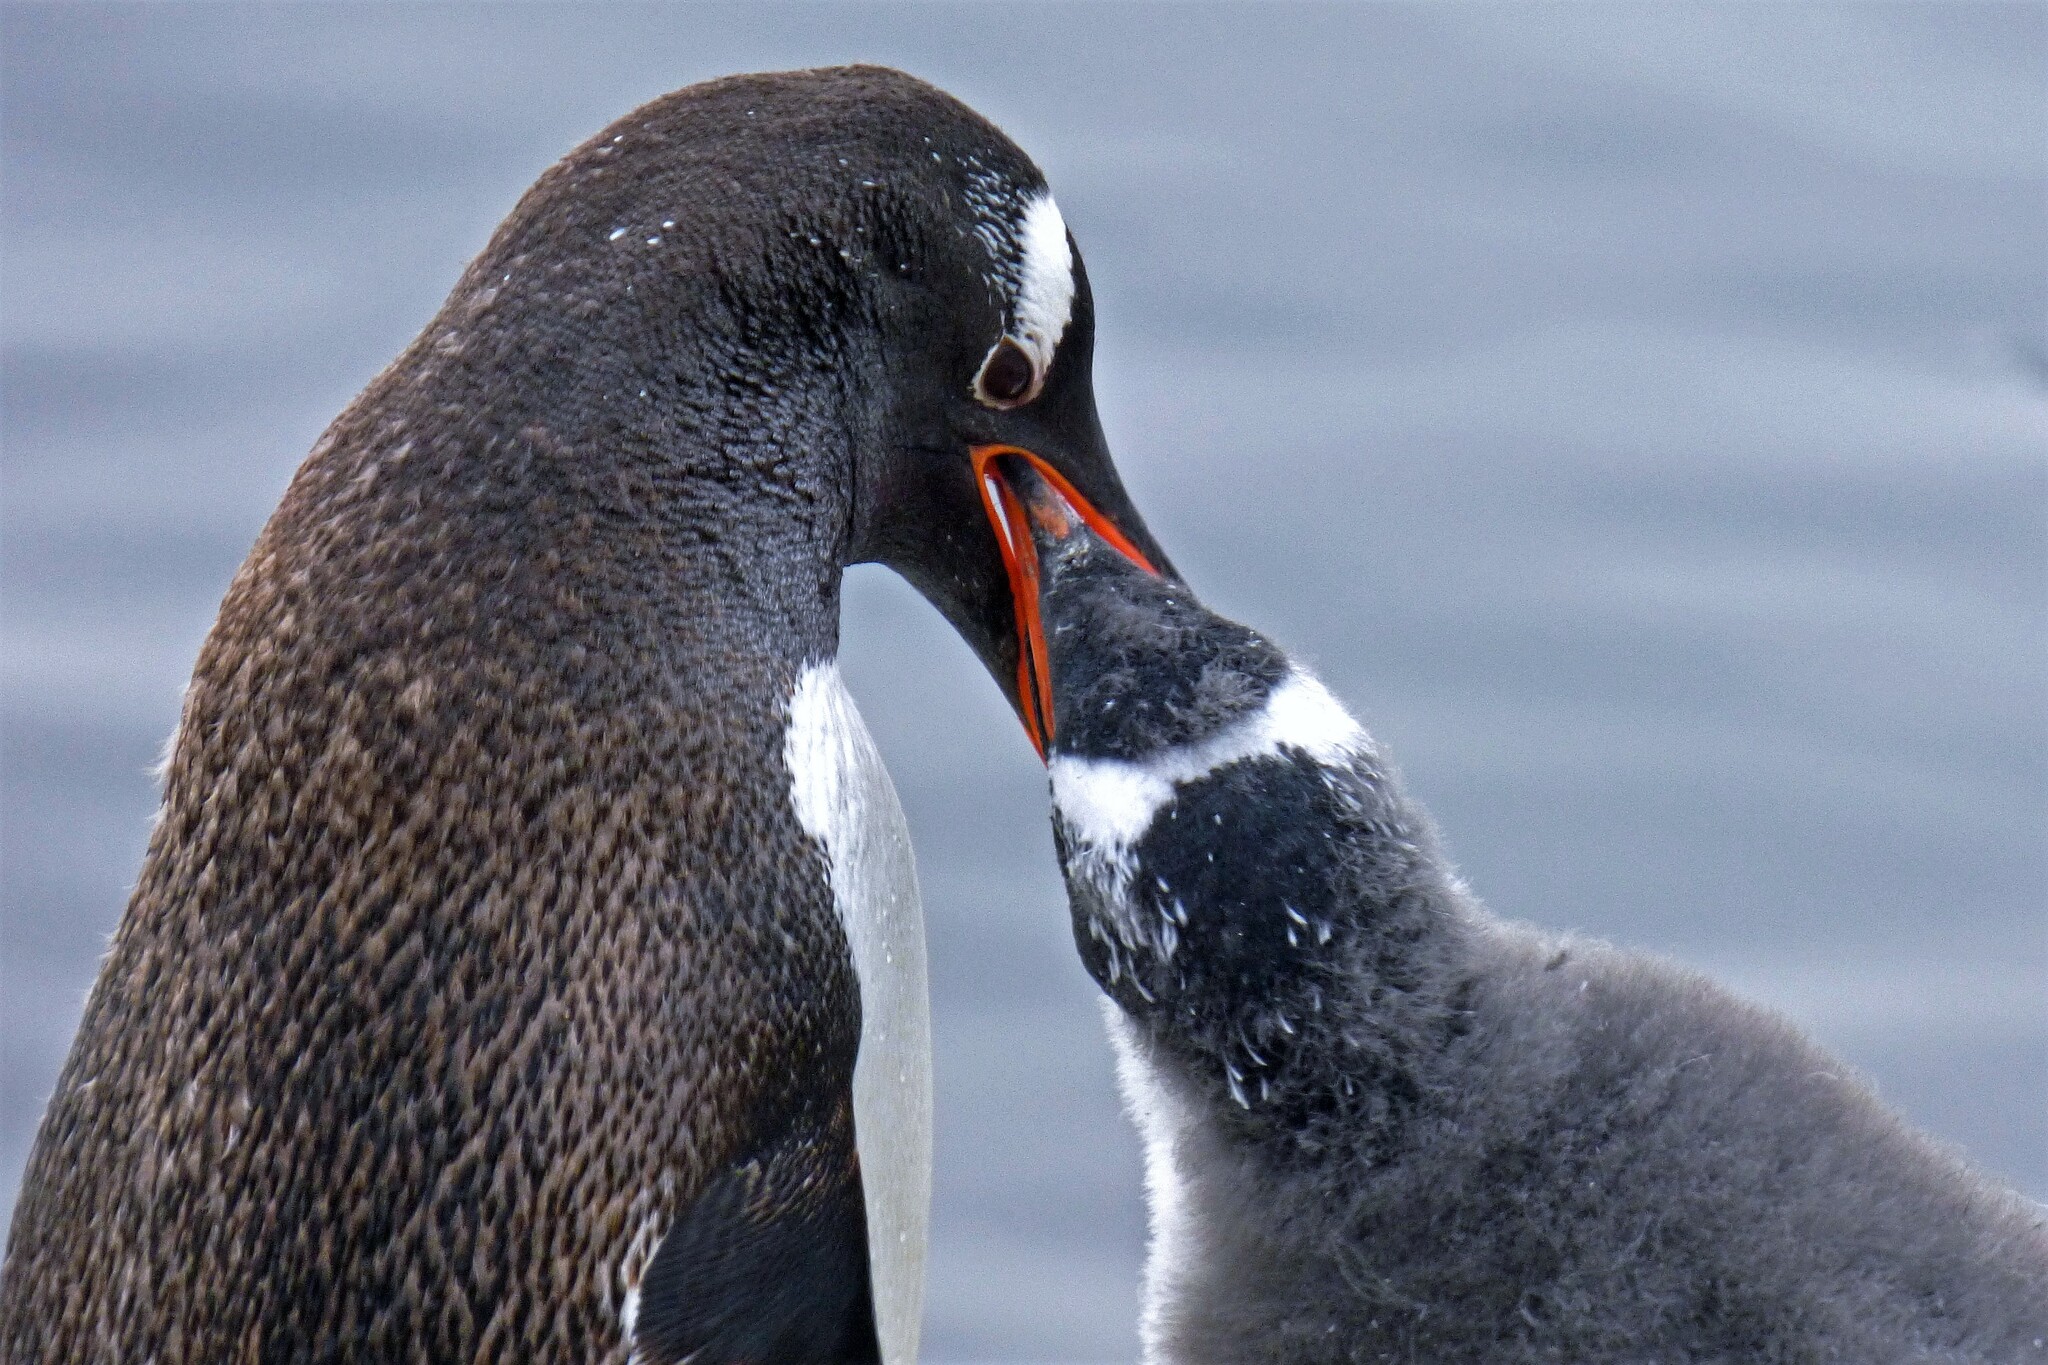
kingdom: Animalia
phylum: Chordata
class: Aves
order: Sphenisciformes
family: Spheniscidae
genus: Pygoscelis
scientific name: Pygoscelis papua
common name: Gentoo penguin
